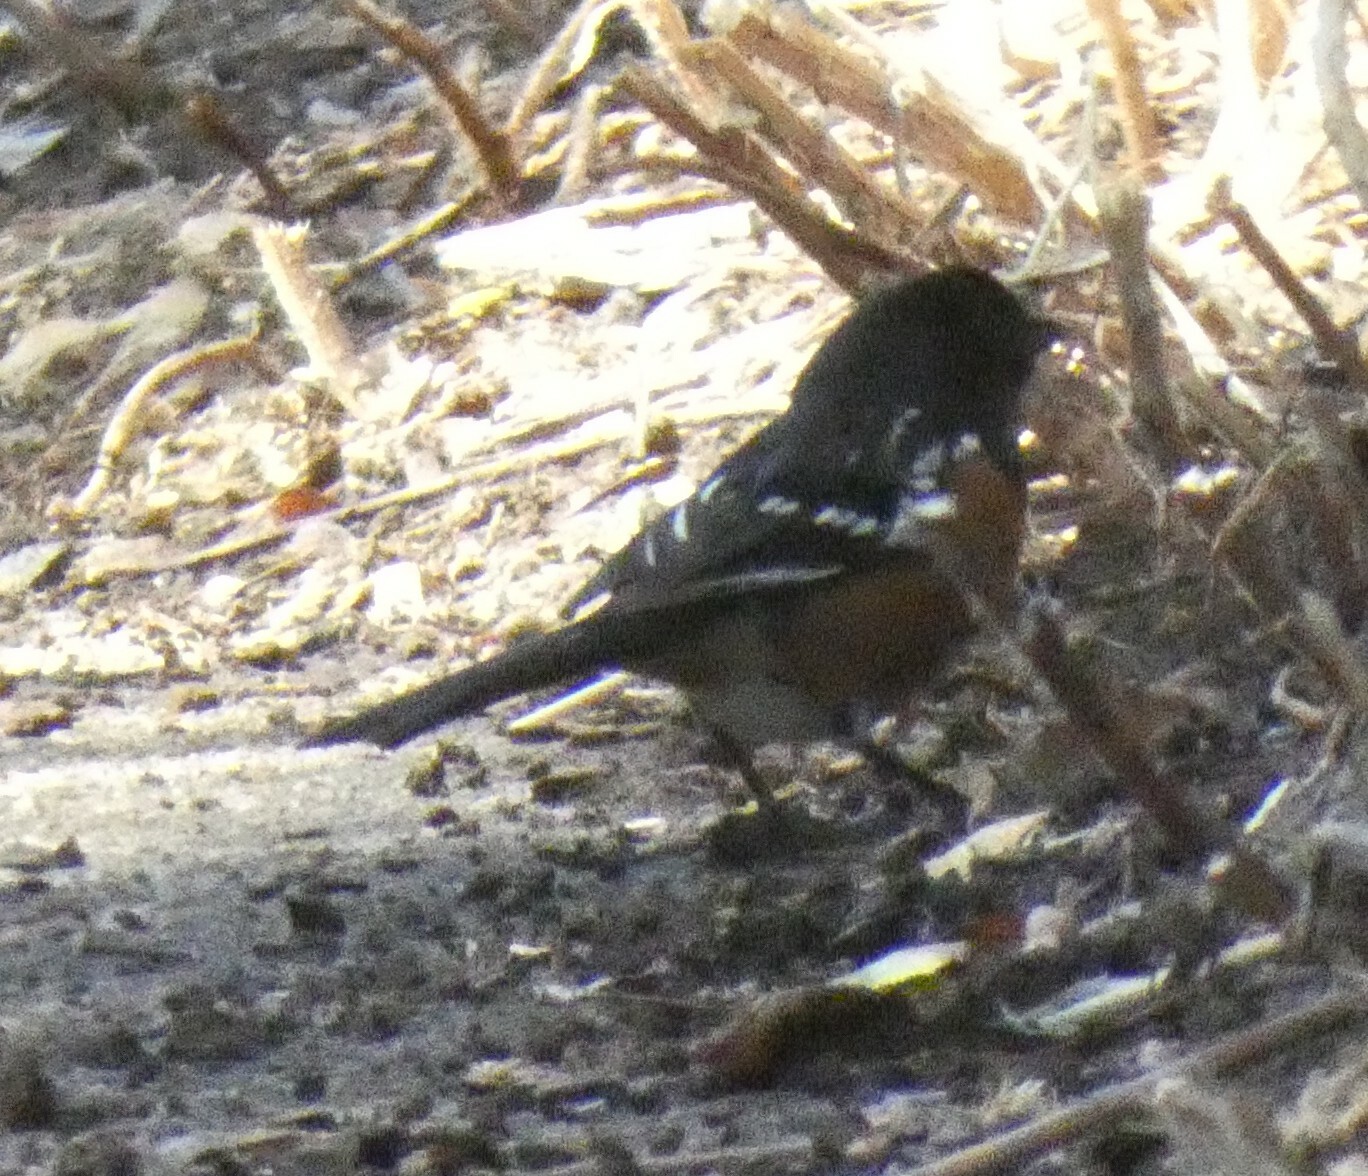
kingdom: Animalia
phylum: Chordata
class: Aves
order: Passeriformes
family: Passerellidae
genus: Pipilo
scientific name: Pipilo maculatus
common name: Spotted towhee
